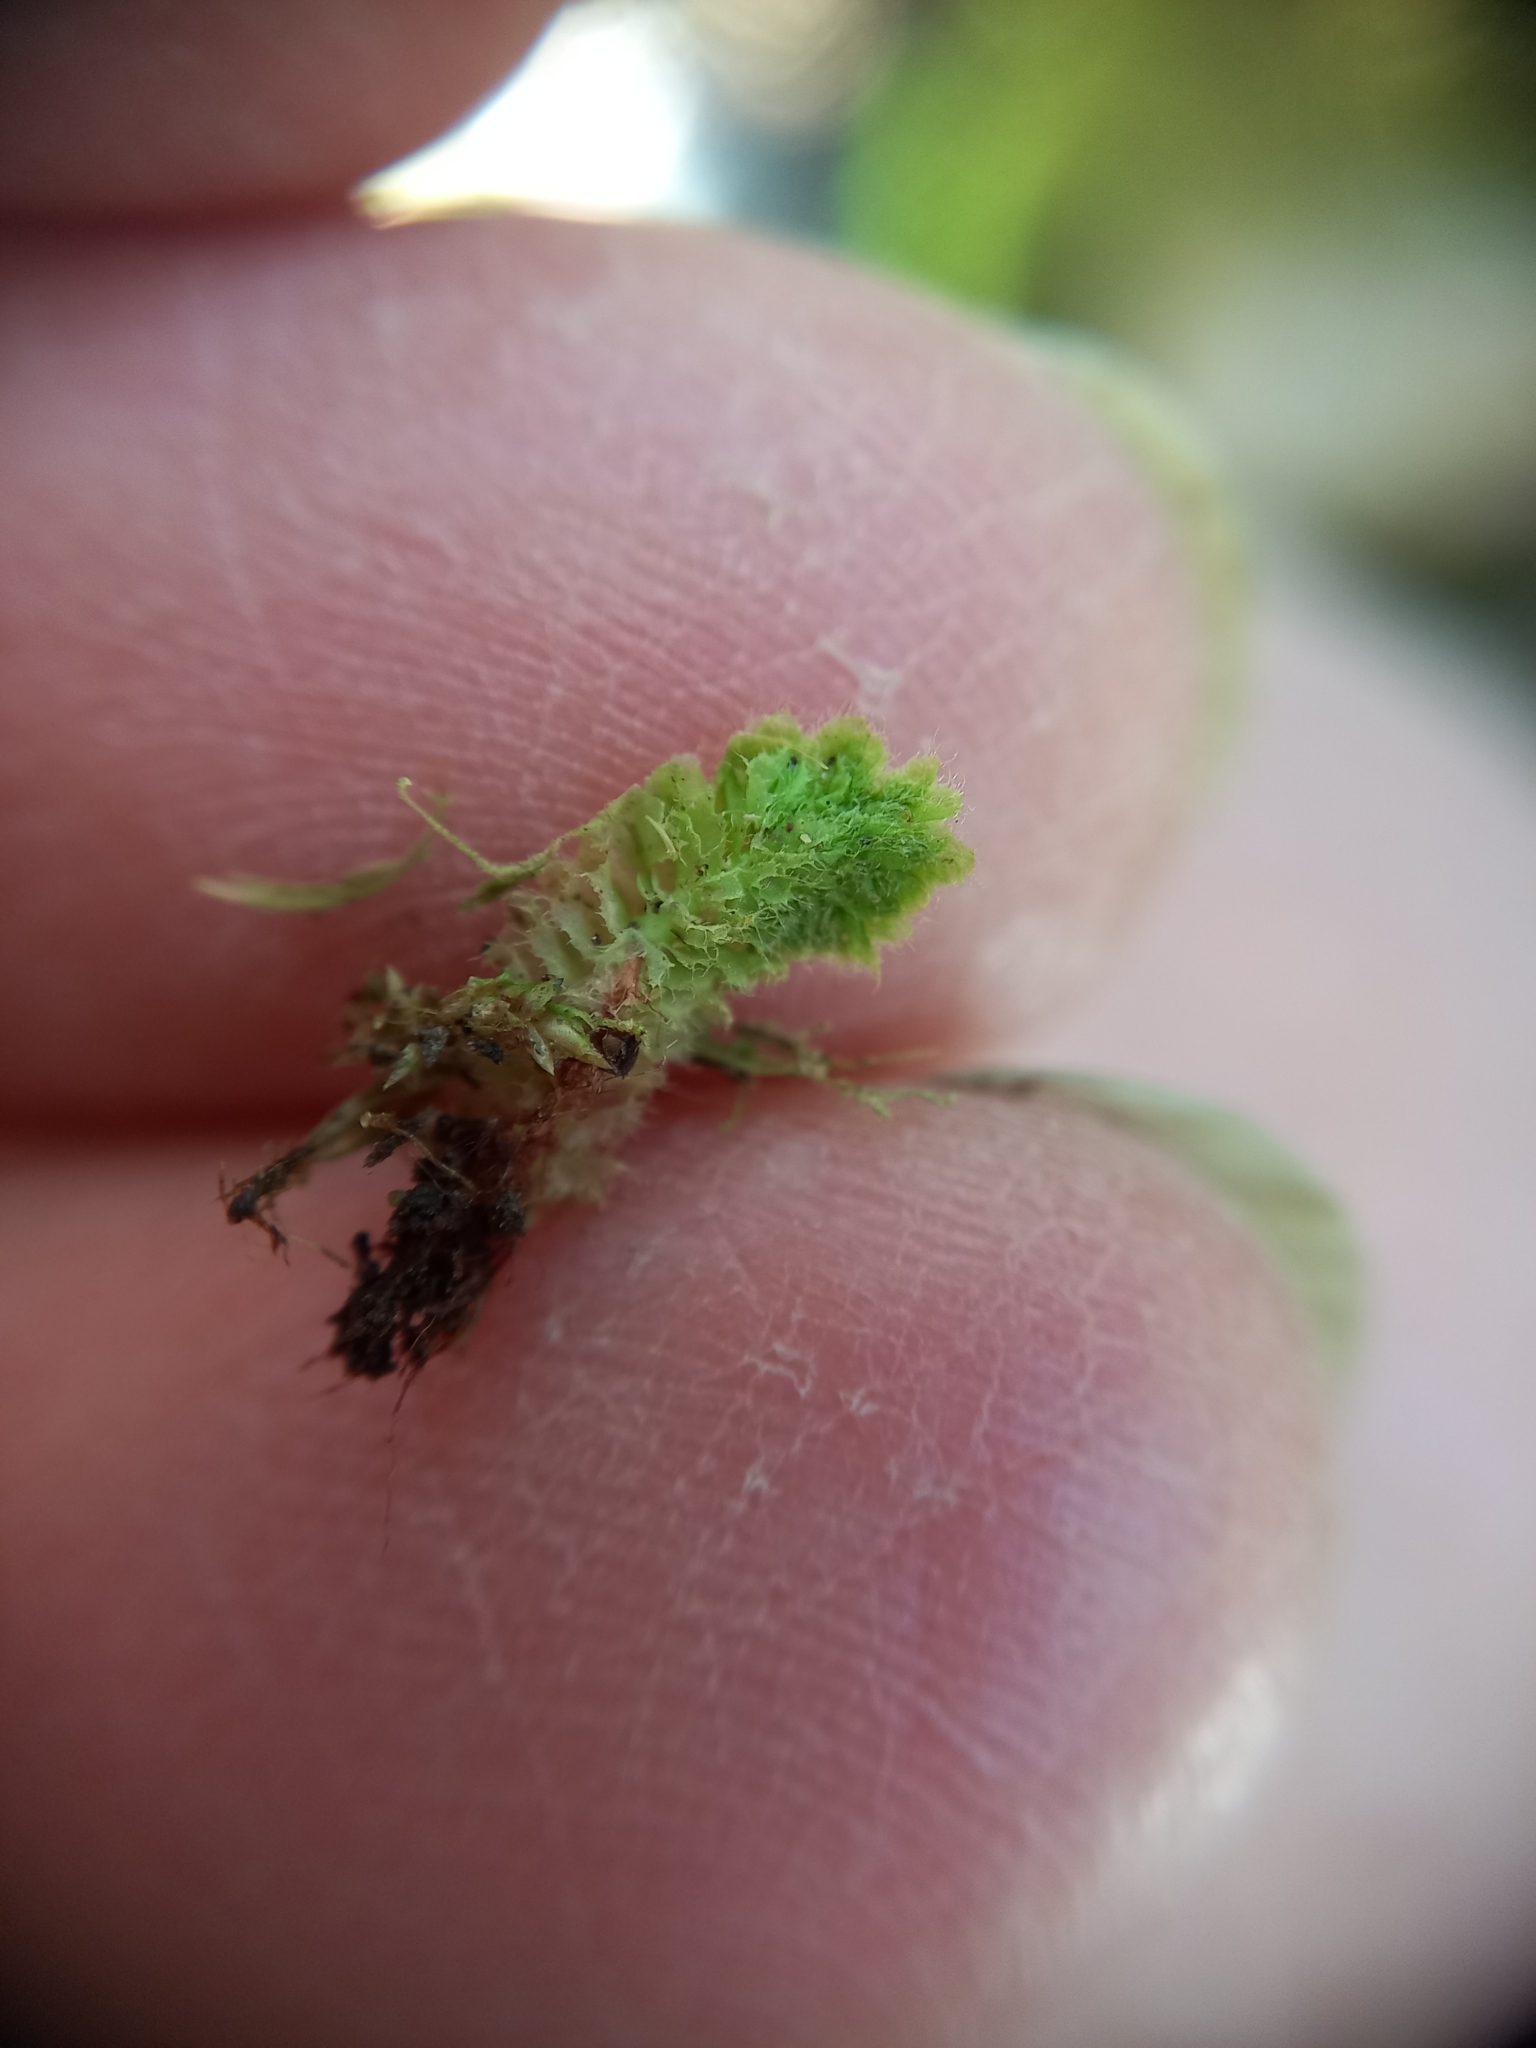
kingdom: Plantae
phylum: Marchantiophyta
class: Jungermanniopsida
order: Jungermanniales
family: Schistochilaceae
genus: Schistochila
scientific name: Schistochila ciliata
